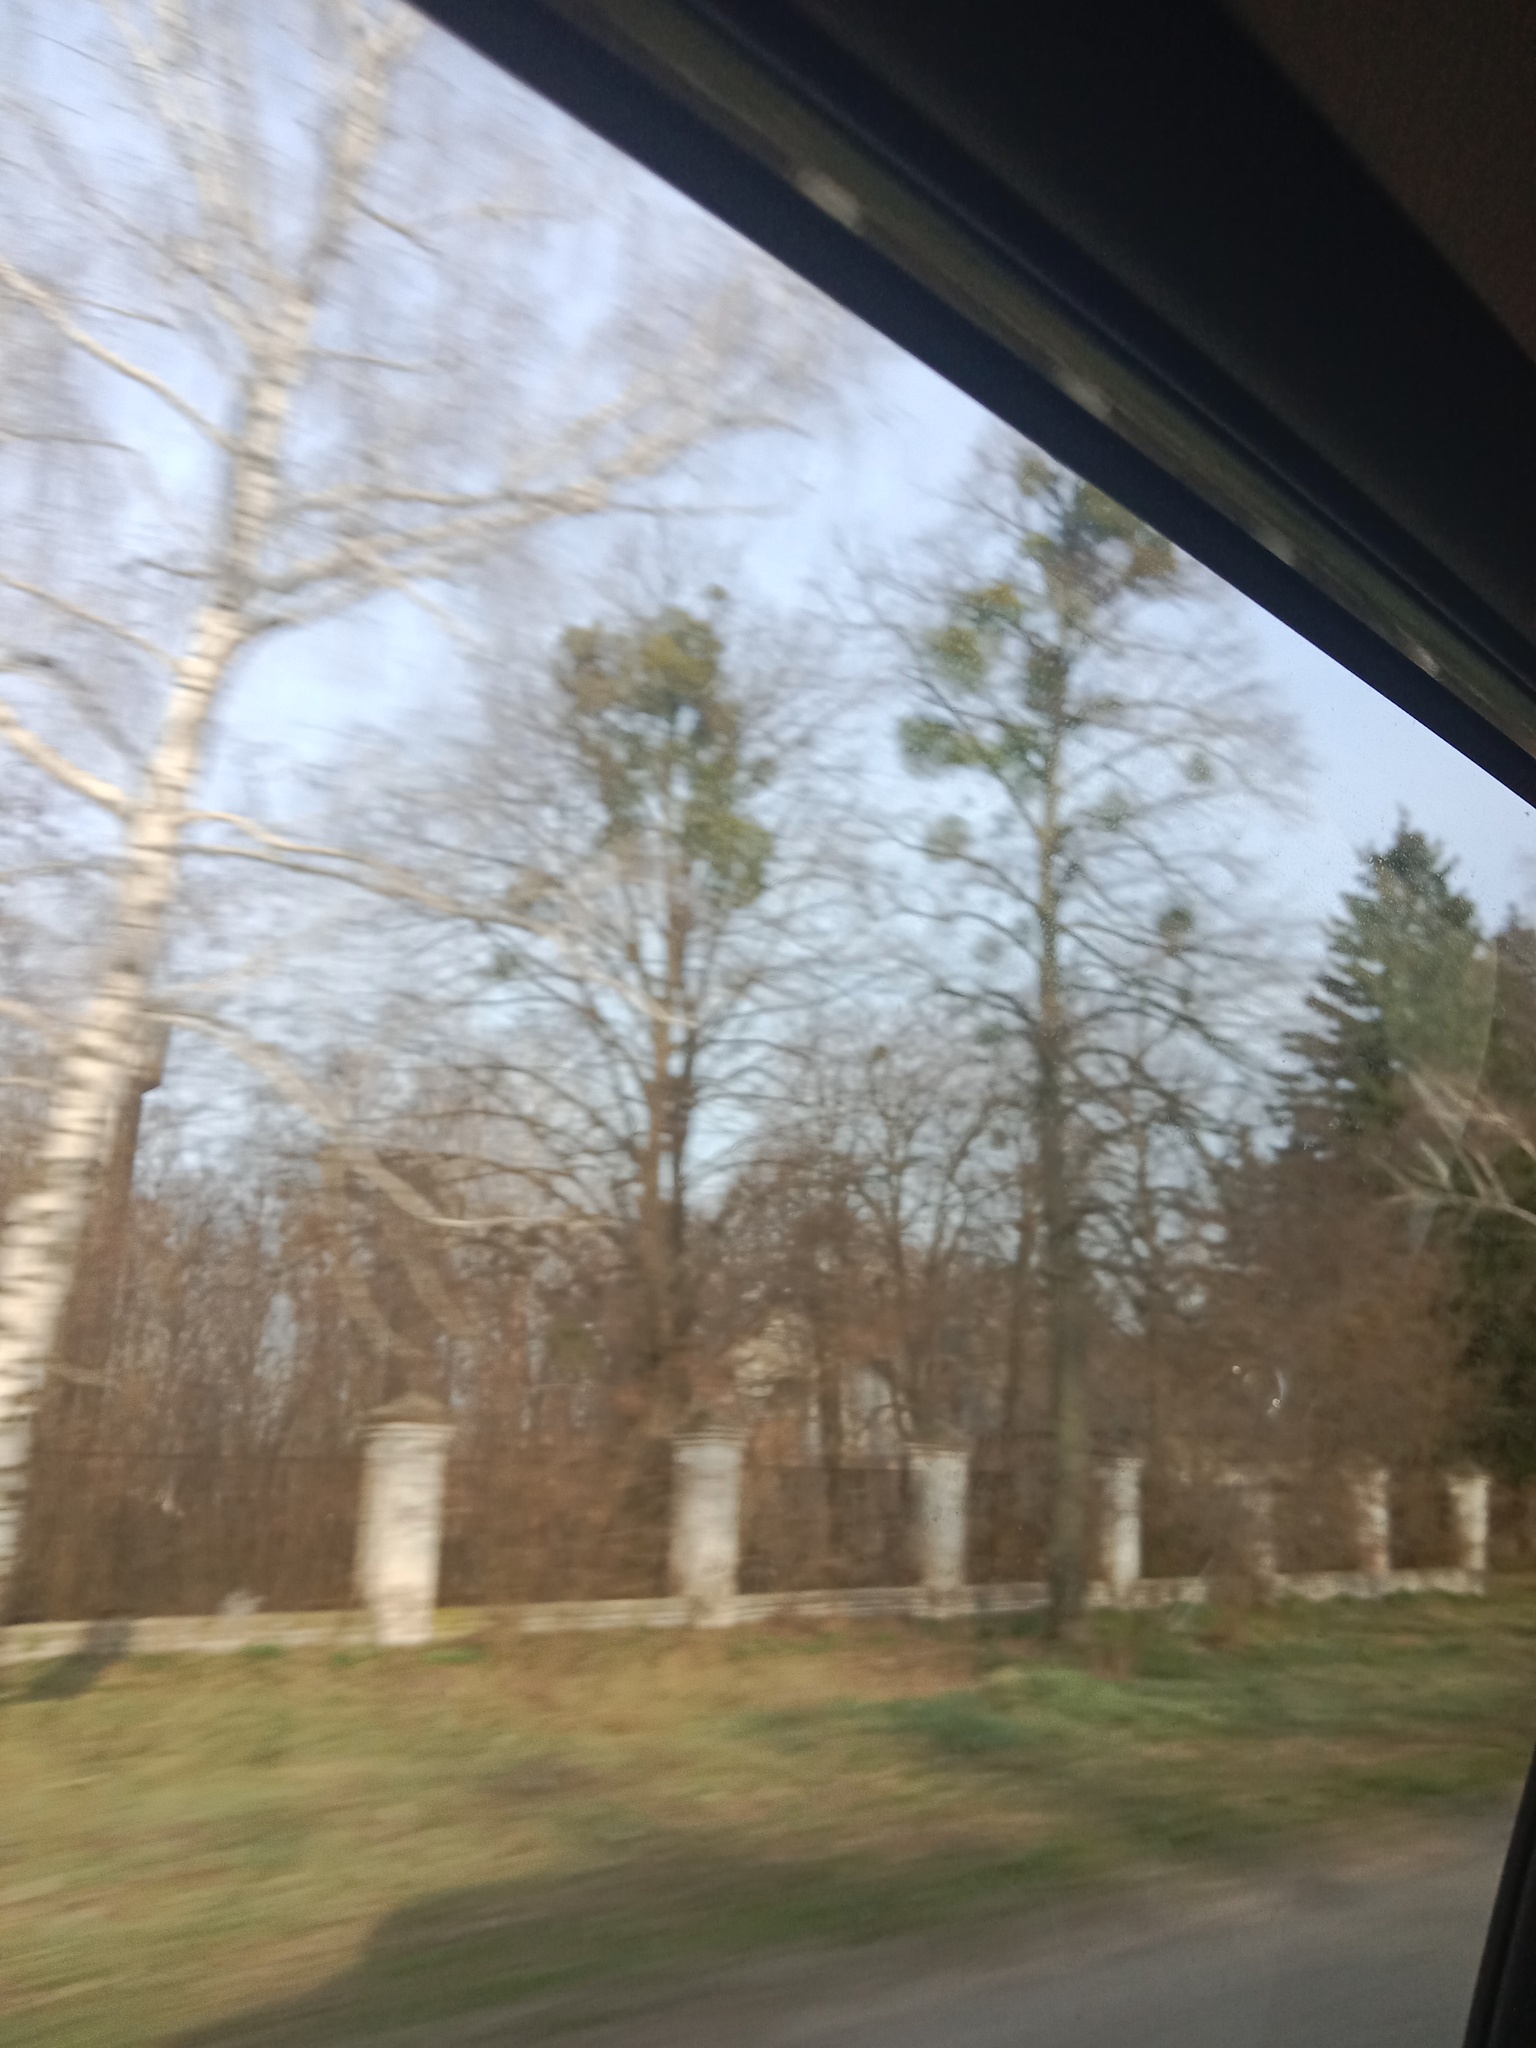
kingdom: Plantae
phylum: Tracheophyta
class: Magnoliopsida
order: Santalales
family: Viscaceae
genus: Viscum
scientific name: Viscum album
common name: Mistletoe
